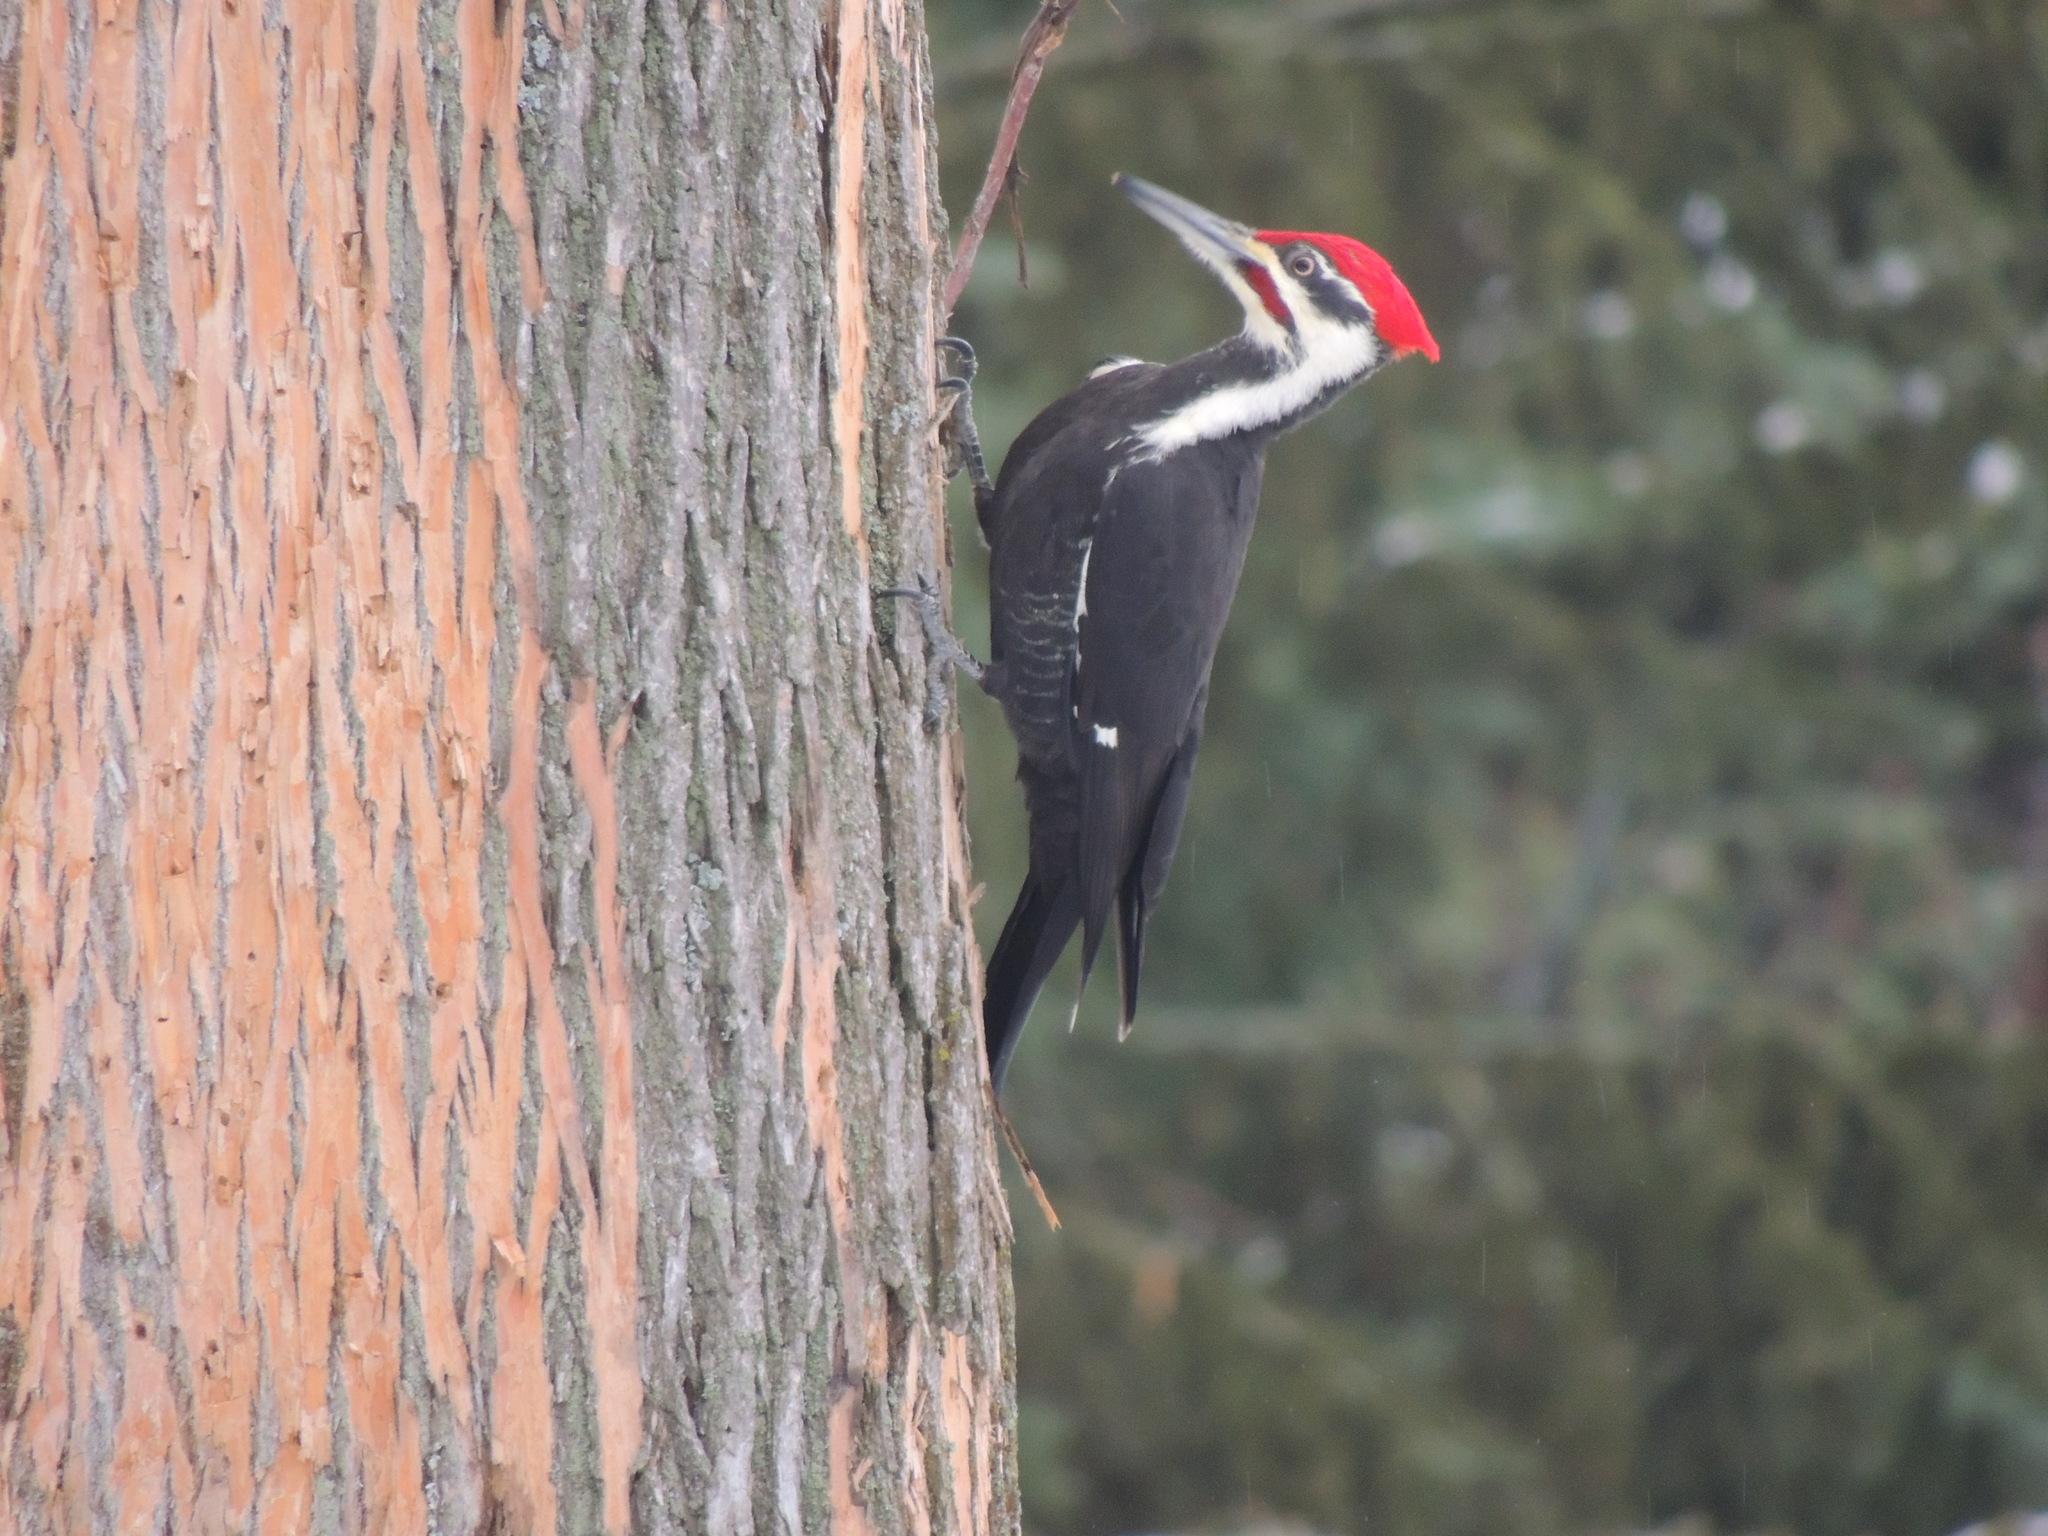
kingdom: Animalia
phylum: Chordata
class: Aves
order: Piciformes
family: Picidae
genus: Dryocopus
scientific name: Dryocopus pileatus
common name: Pileated woodpecker
